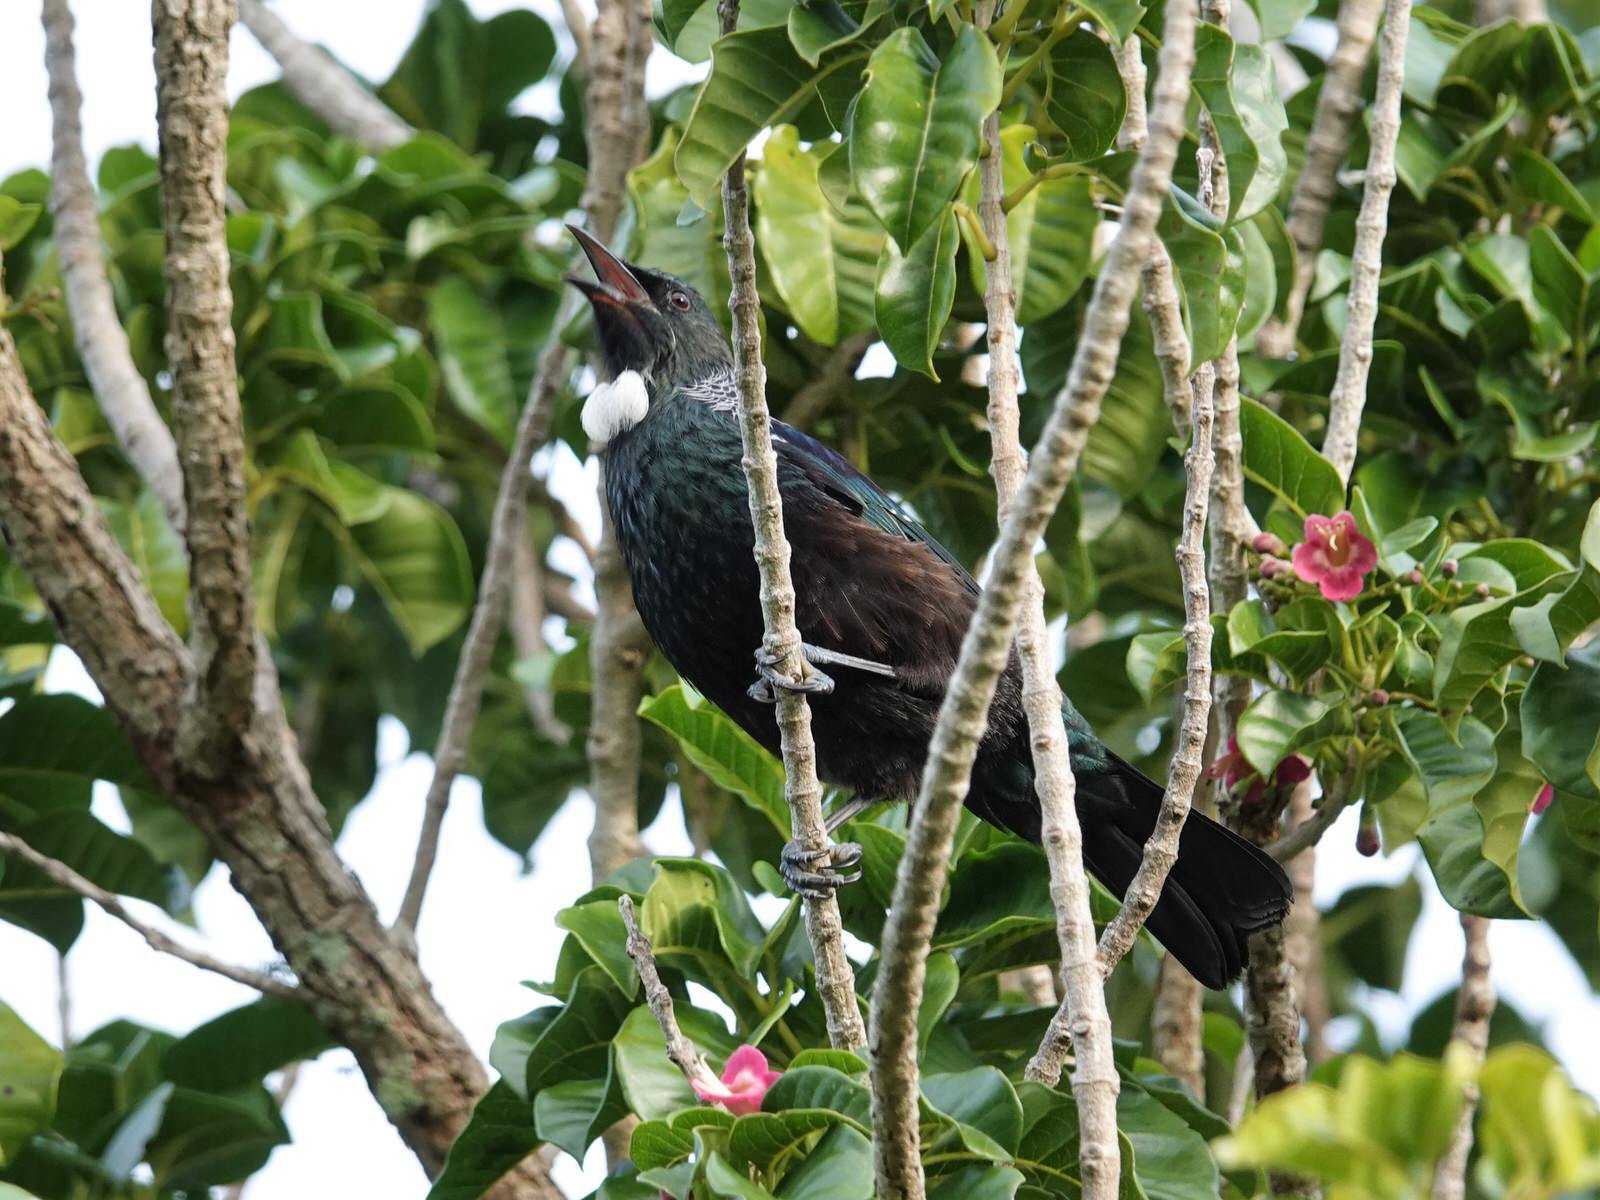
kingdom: Animalia
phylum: Chordata
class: Aves
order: Passeriformes
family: Meliphagidae
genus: Prosthemadera
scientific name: Prosthemadera novaeseelandiae
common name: Tui
